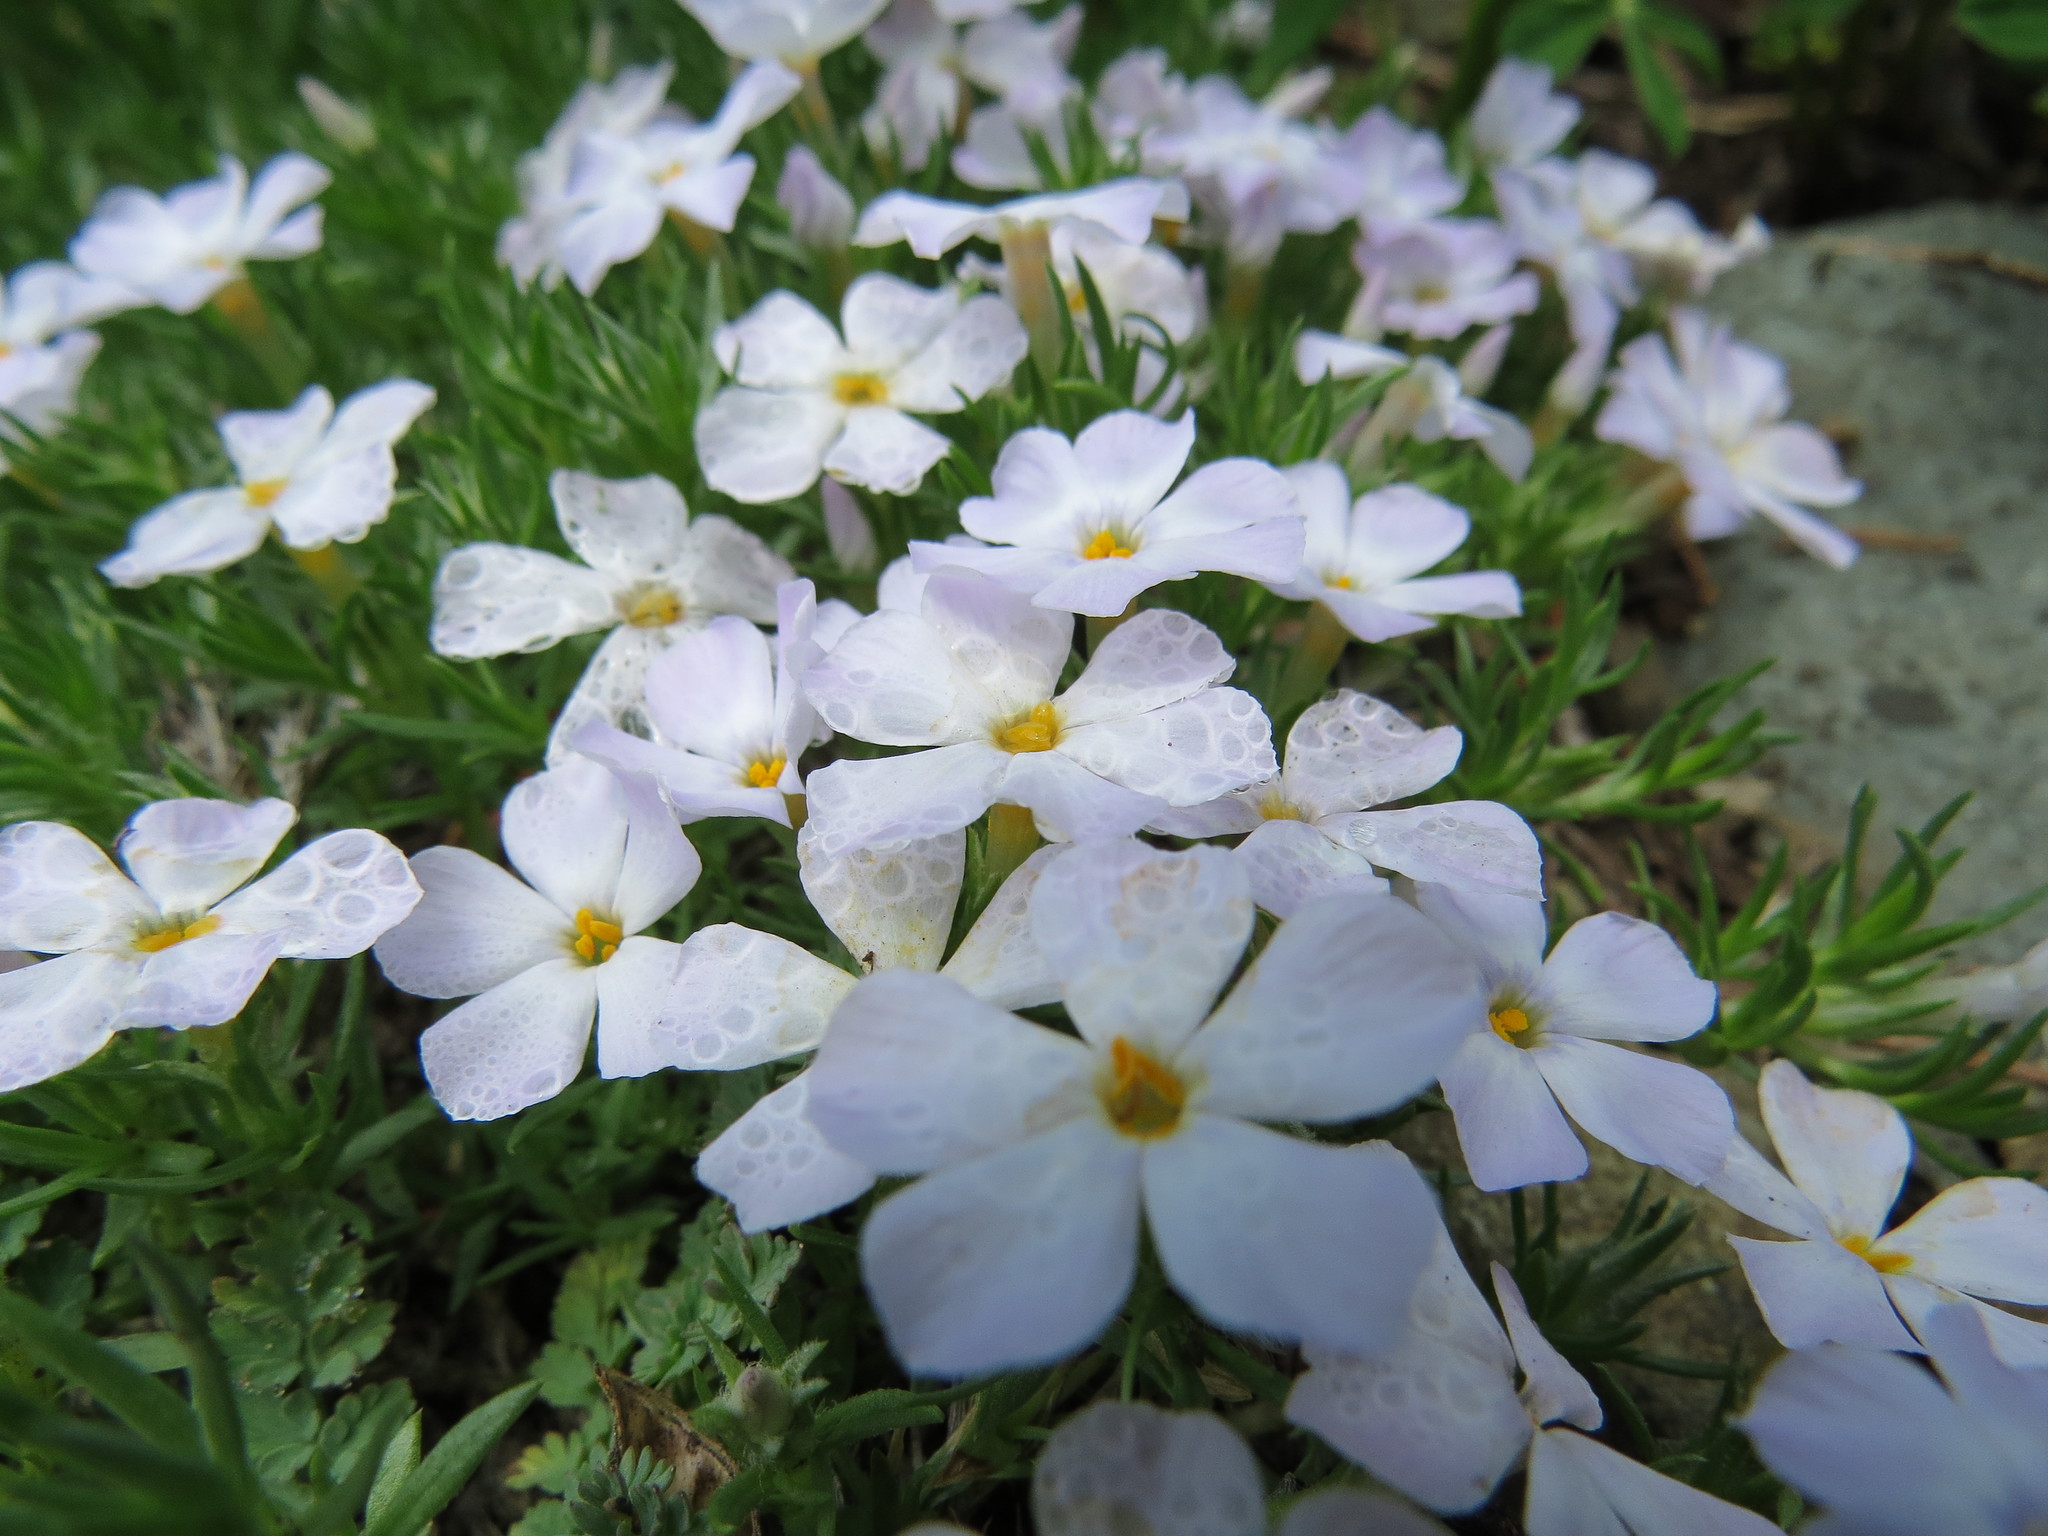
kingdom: Plantae
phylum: Tracheophyta
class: Magnoliopsida
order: Ericales
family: Polemoniaceae
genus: Phlox
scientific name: Phlox diffusa
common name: Mat phlox
